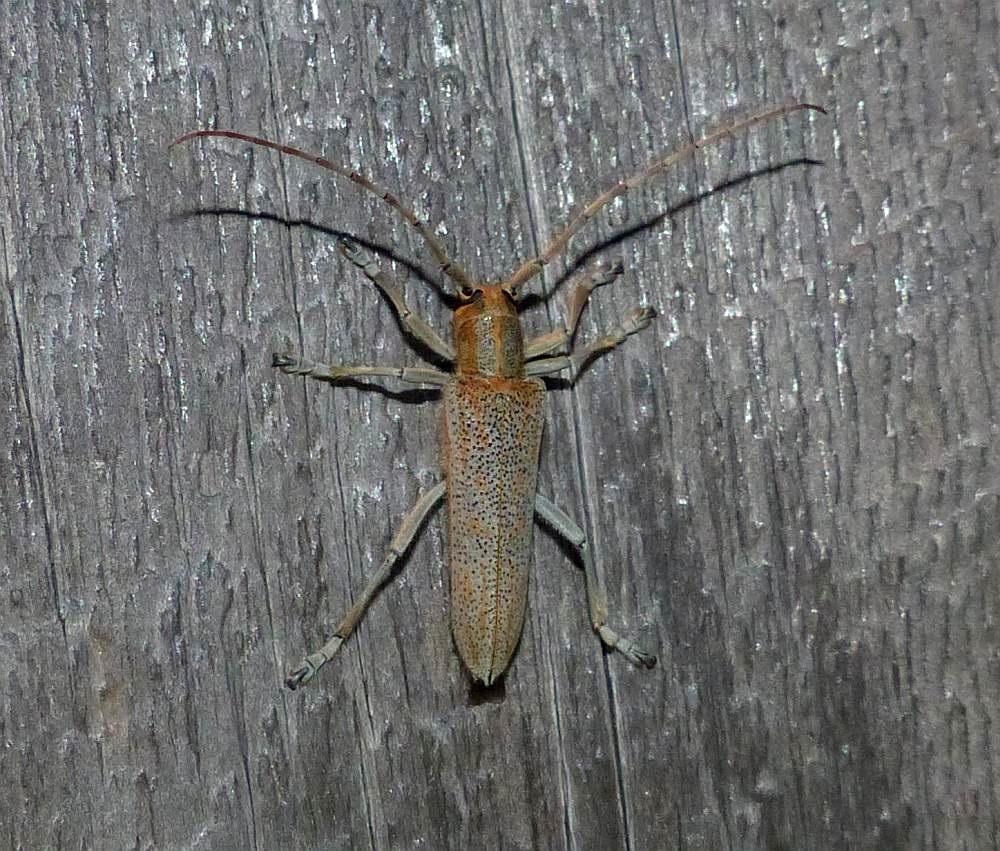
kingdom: Animalia
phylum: Arthropoda
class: Insecta
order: Coleoptera
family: Cerambycidae
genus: Saperda
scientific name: Saperda calcarata
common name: Poplar borer
